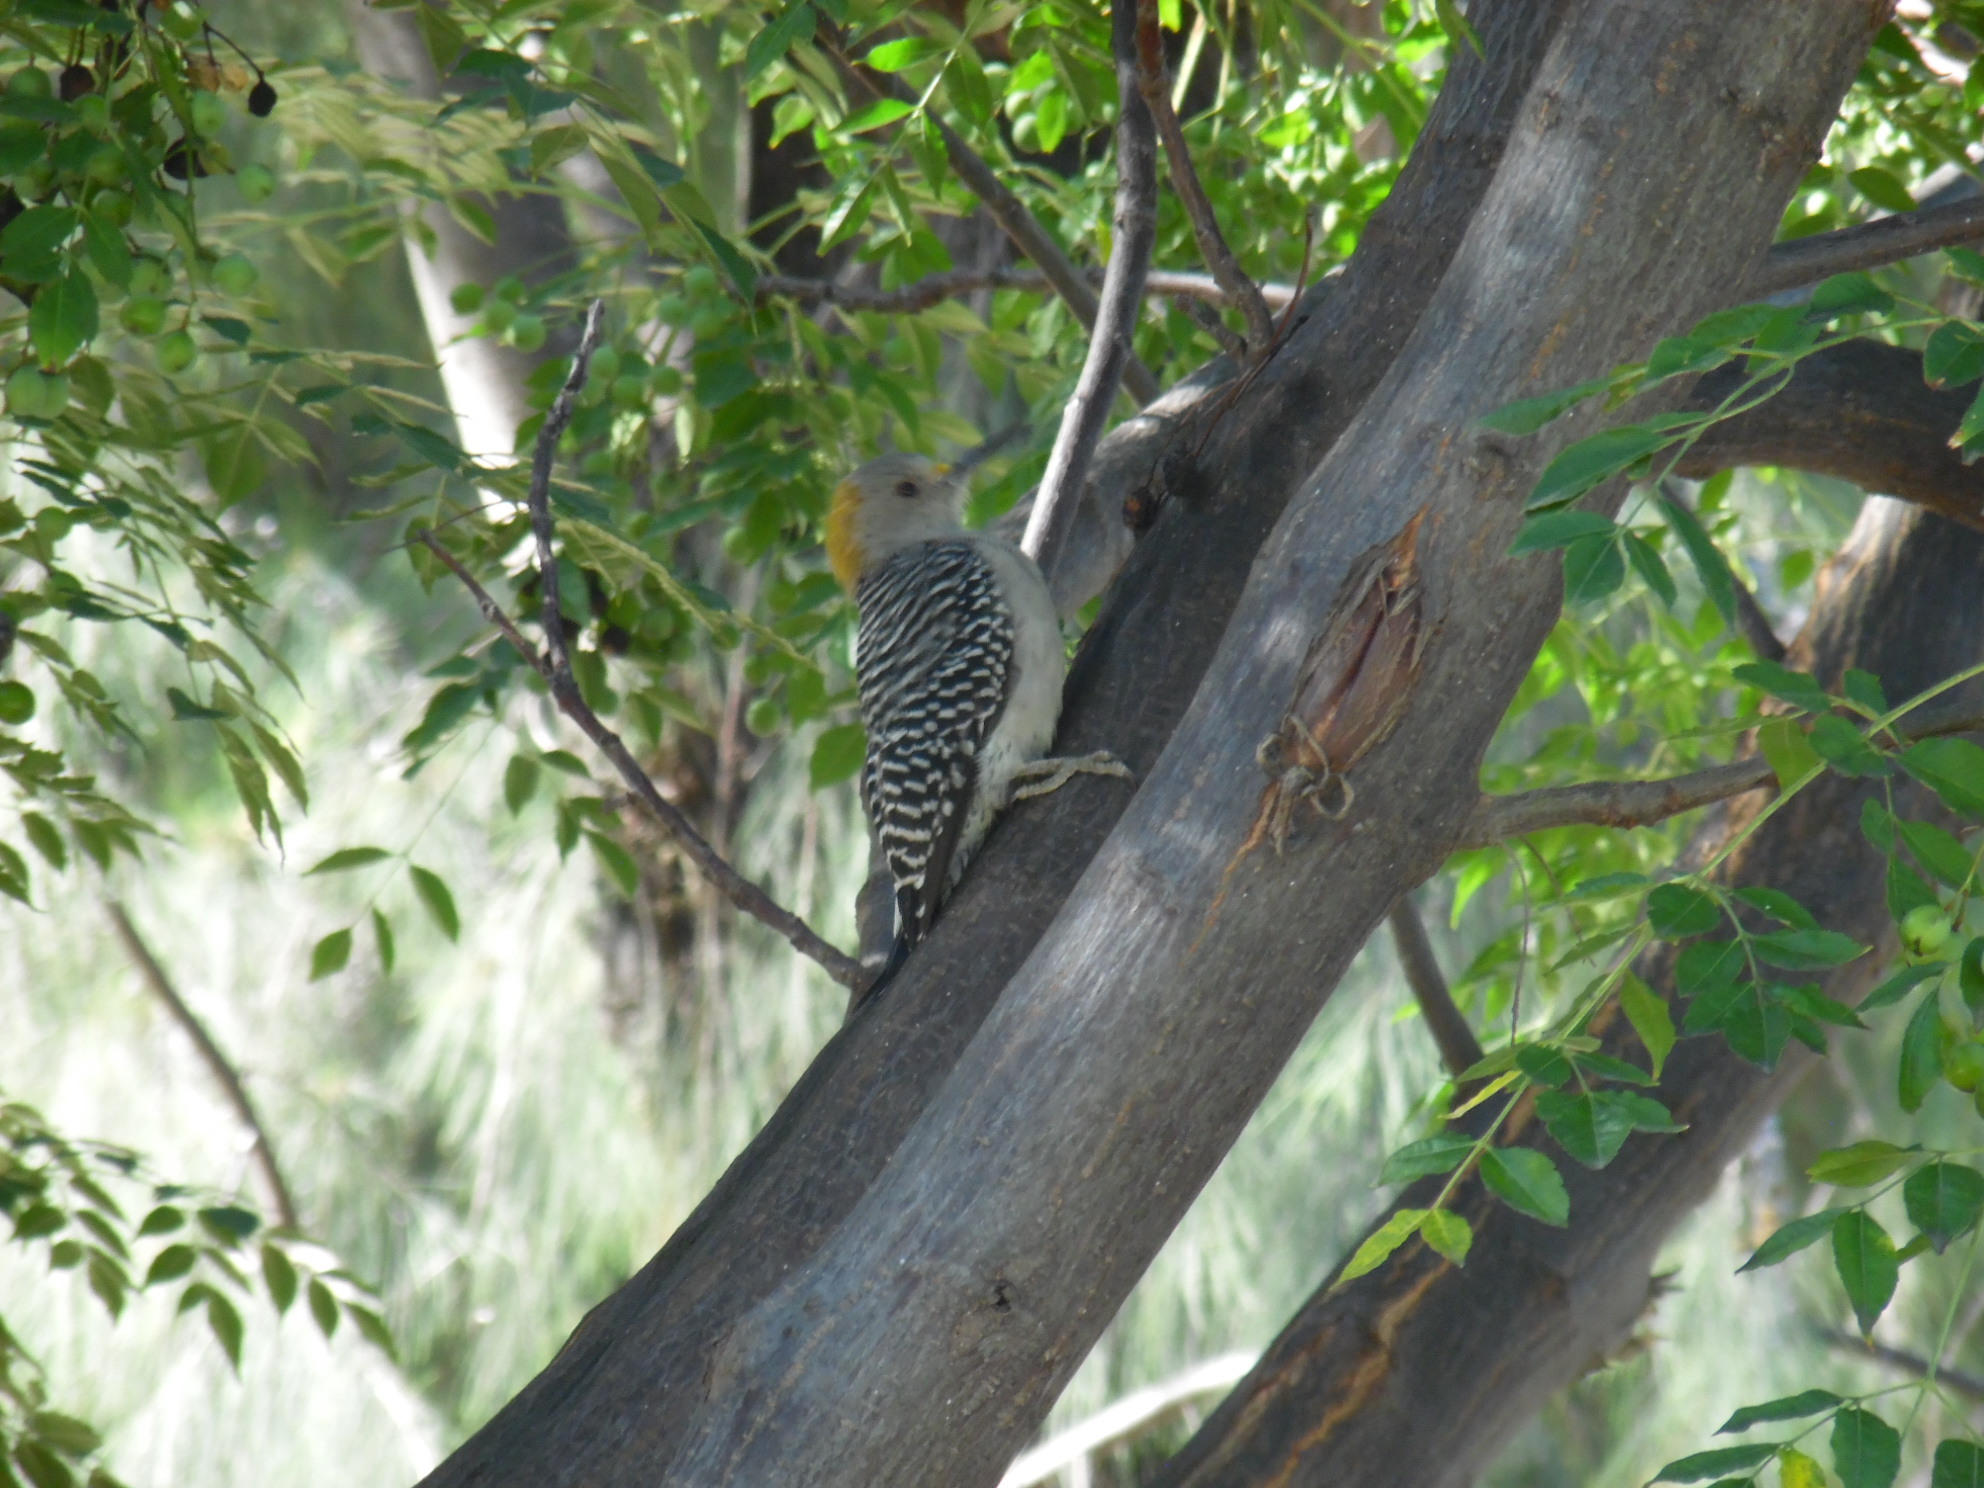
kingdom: Animalia
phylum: Chordata
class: Aves
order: Piciformes
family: Picidae
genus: Melanerpes
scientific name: Melanerpes aurifrons
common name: Golden-fronted woodpecker
